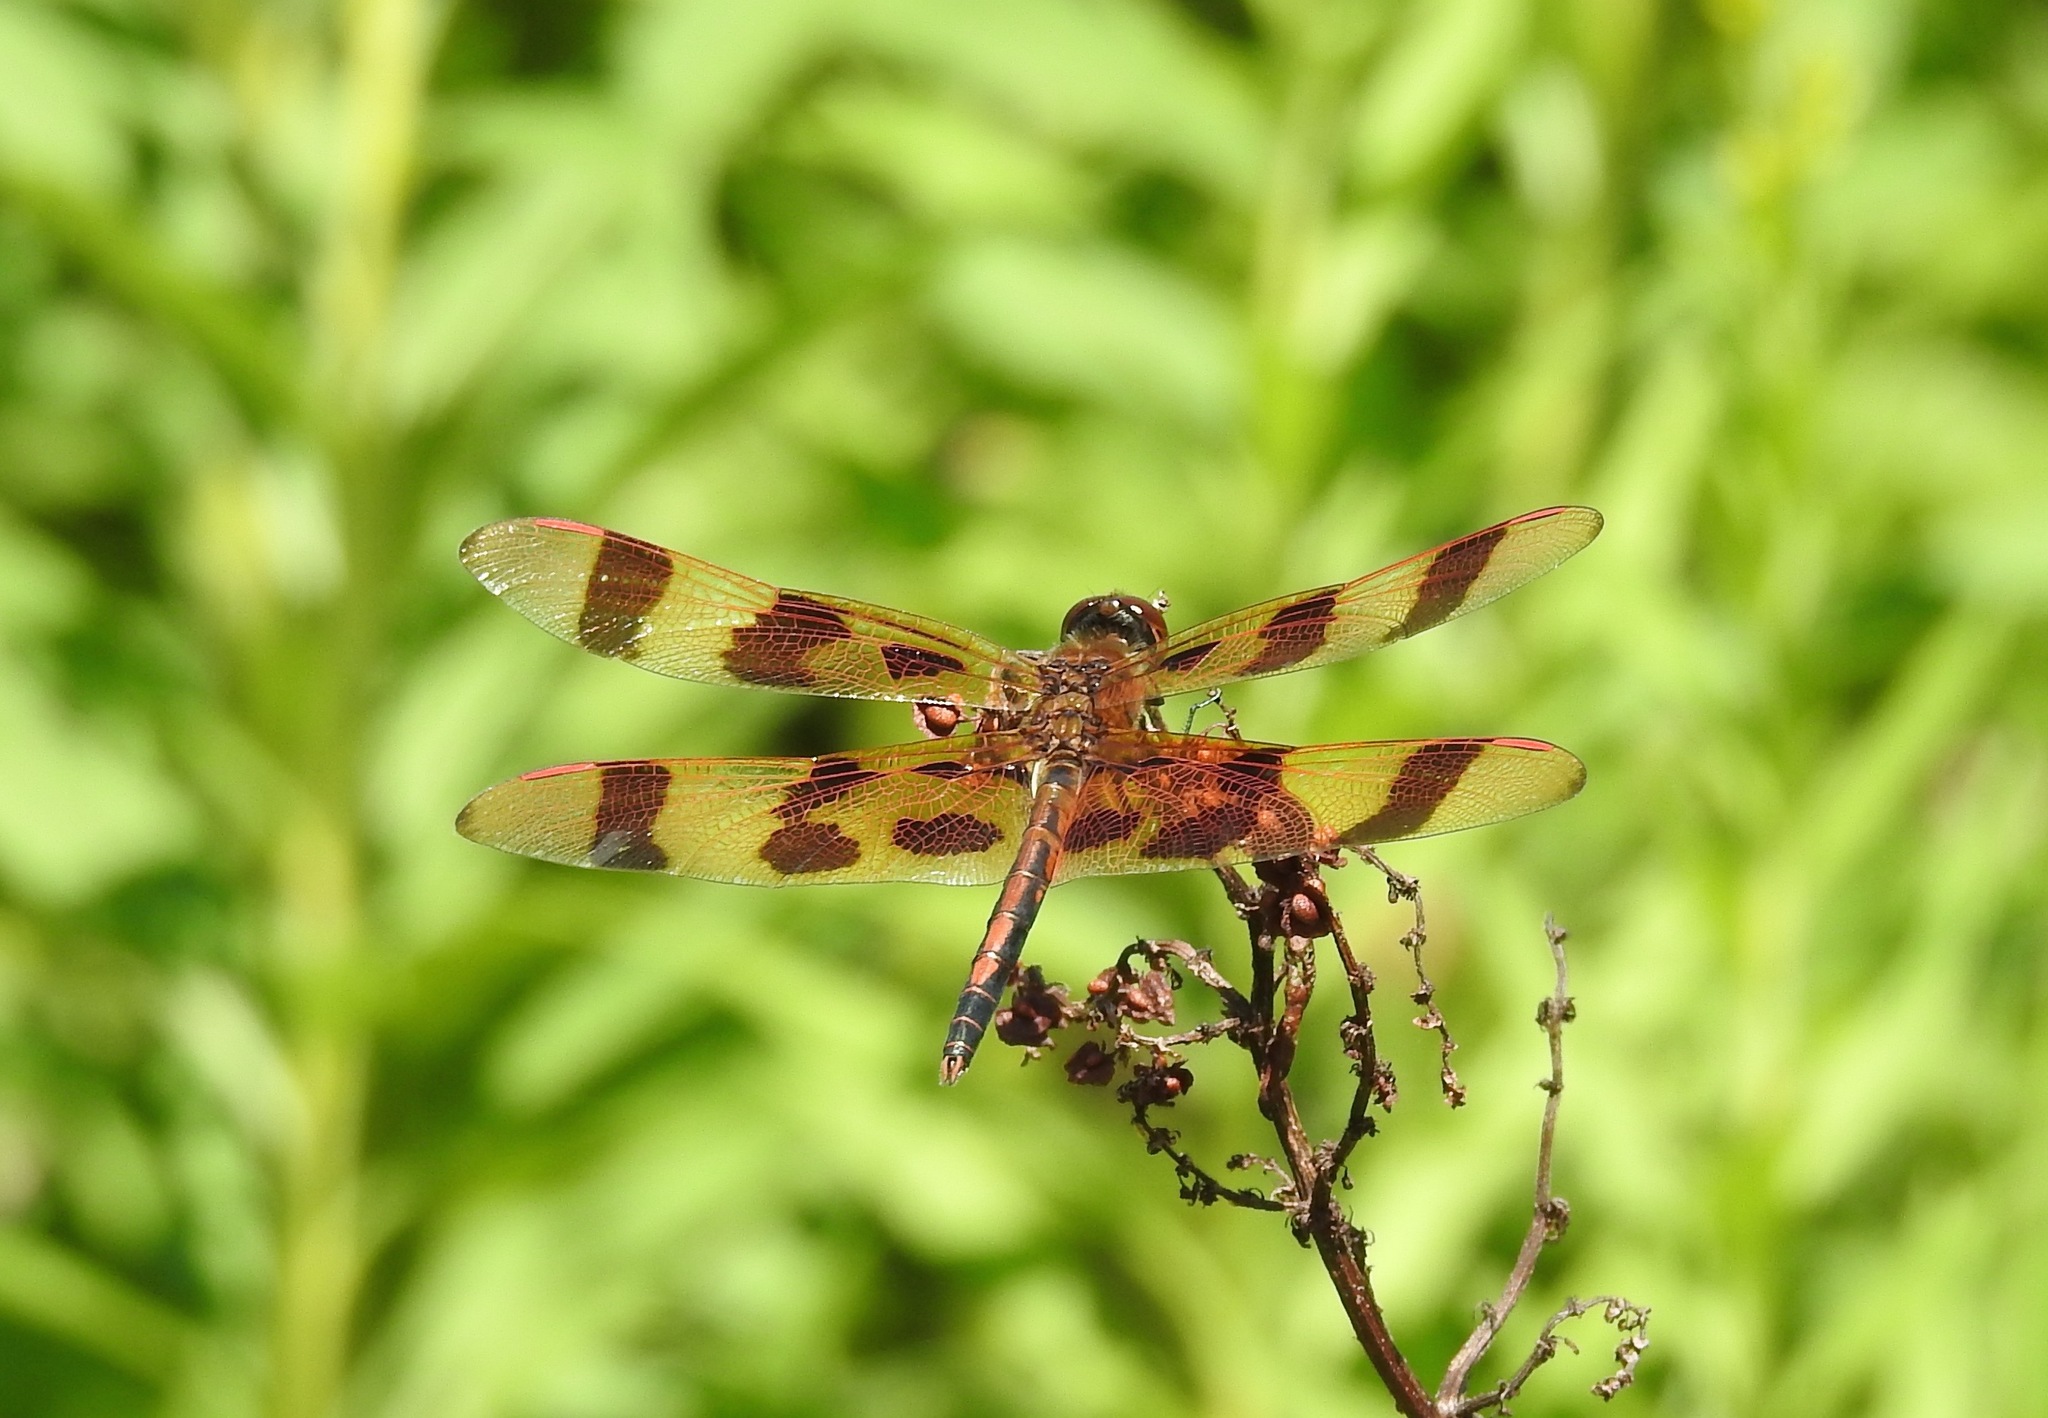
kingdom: Animalia
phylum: Arthropoda
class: Insecta
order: Odonata
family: Libellulidae
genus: Celithemis
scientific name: Celithemis eponina
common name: Halloween pennant
